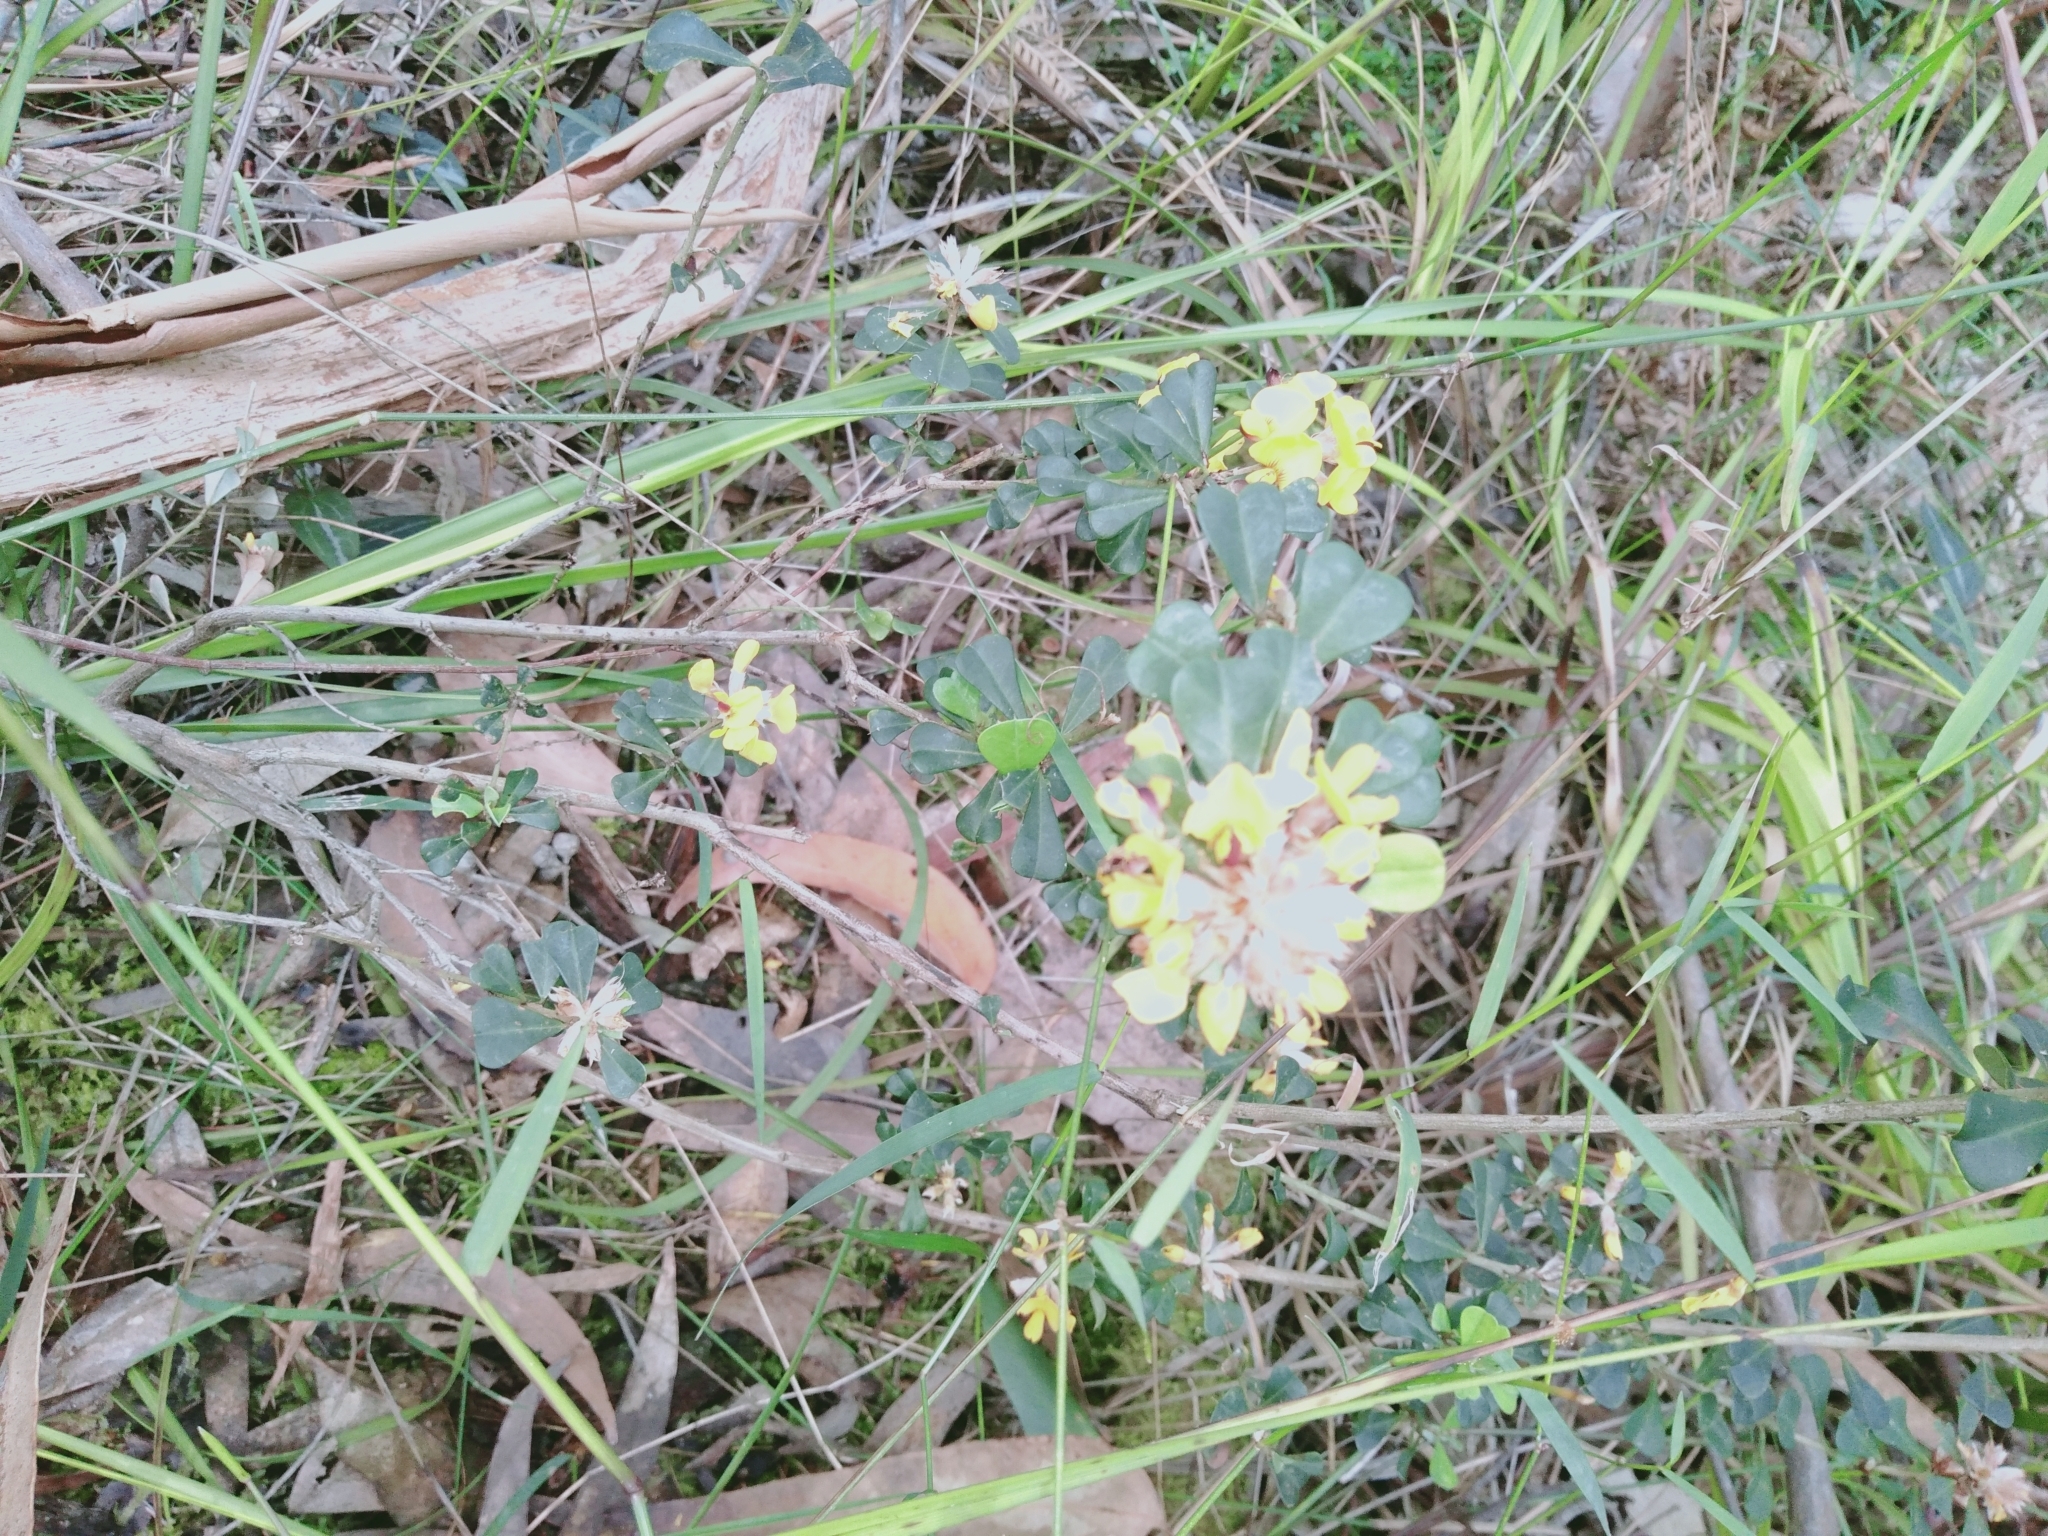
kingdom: Plantae
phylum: Tracheophyta
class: Magnoliopsida
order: Fabales
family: Fabaceae
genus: Pultenaea
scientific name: Pultenaea daphnoides
